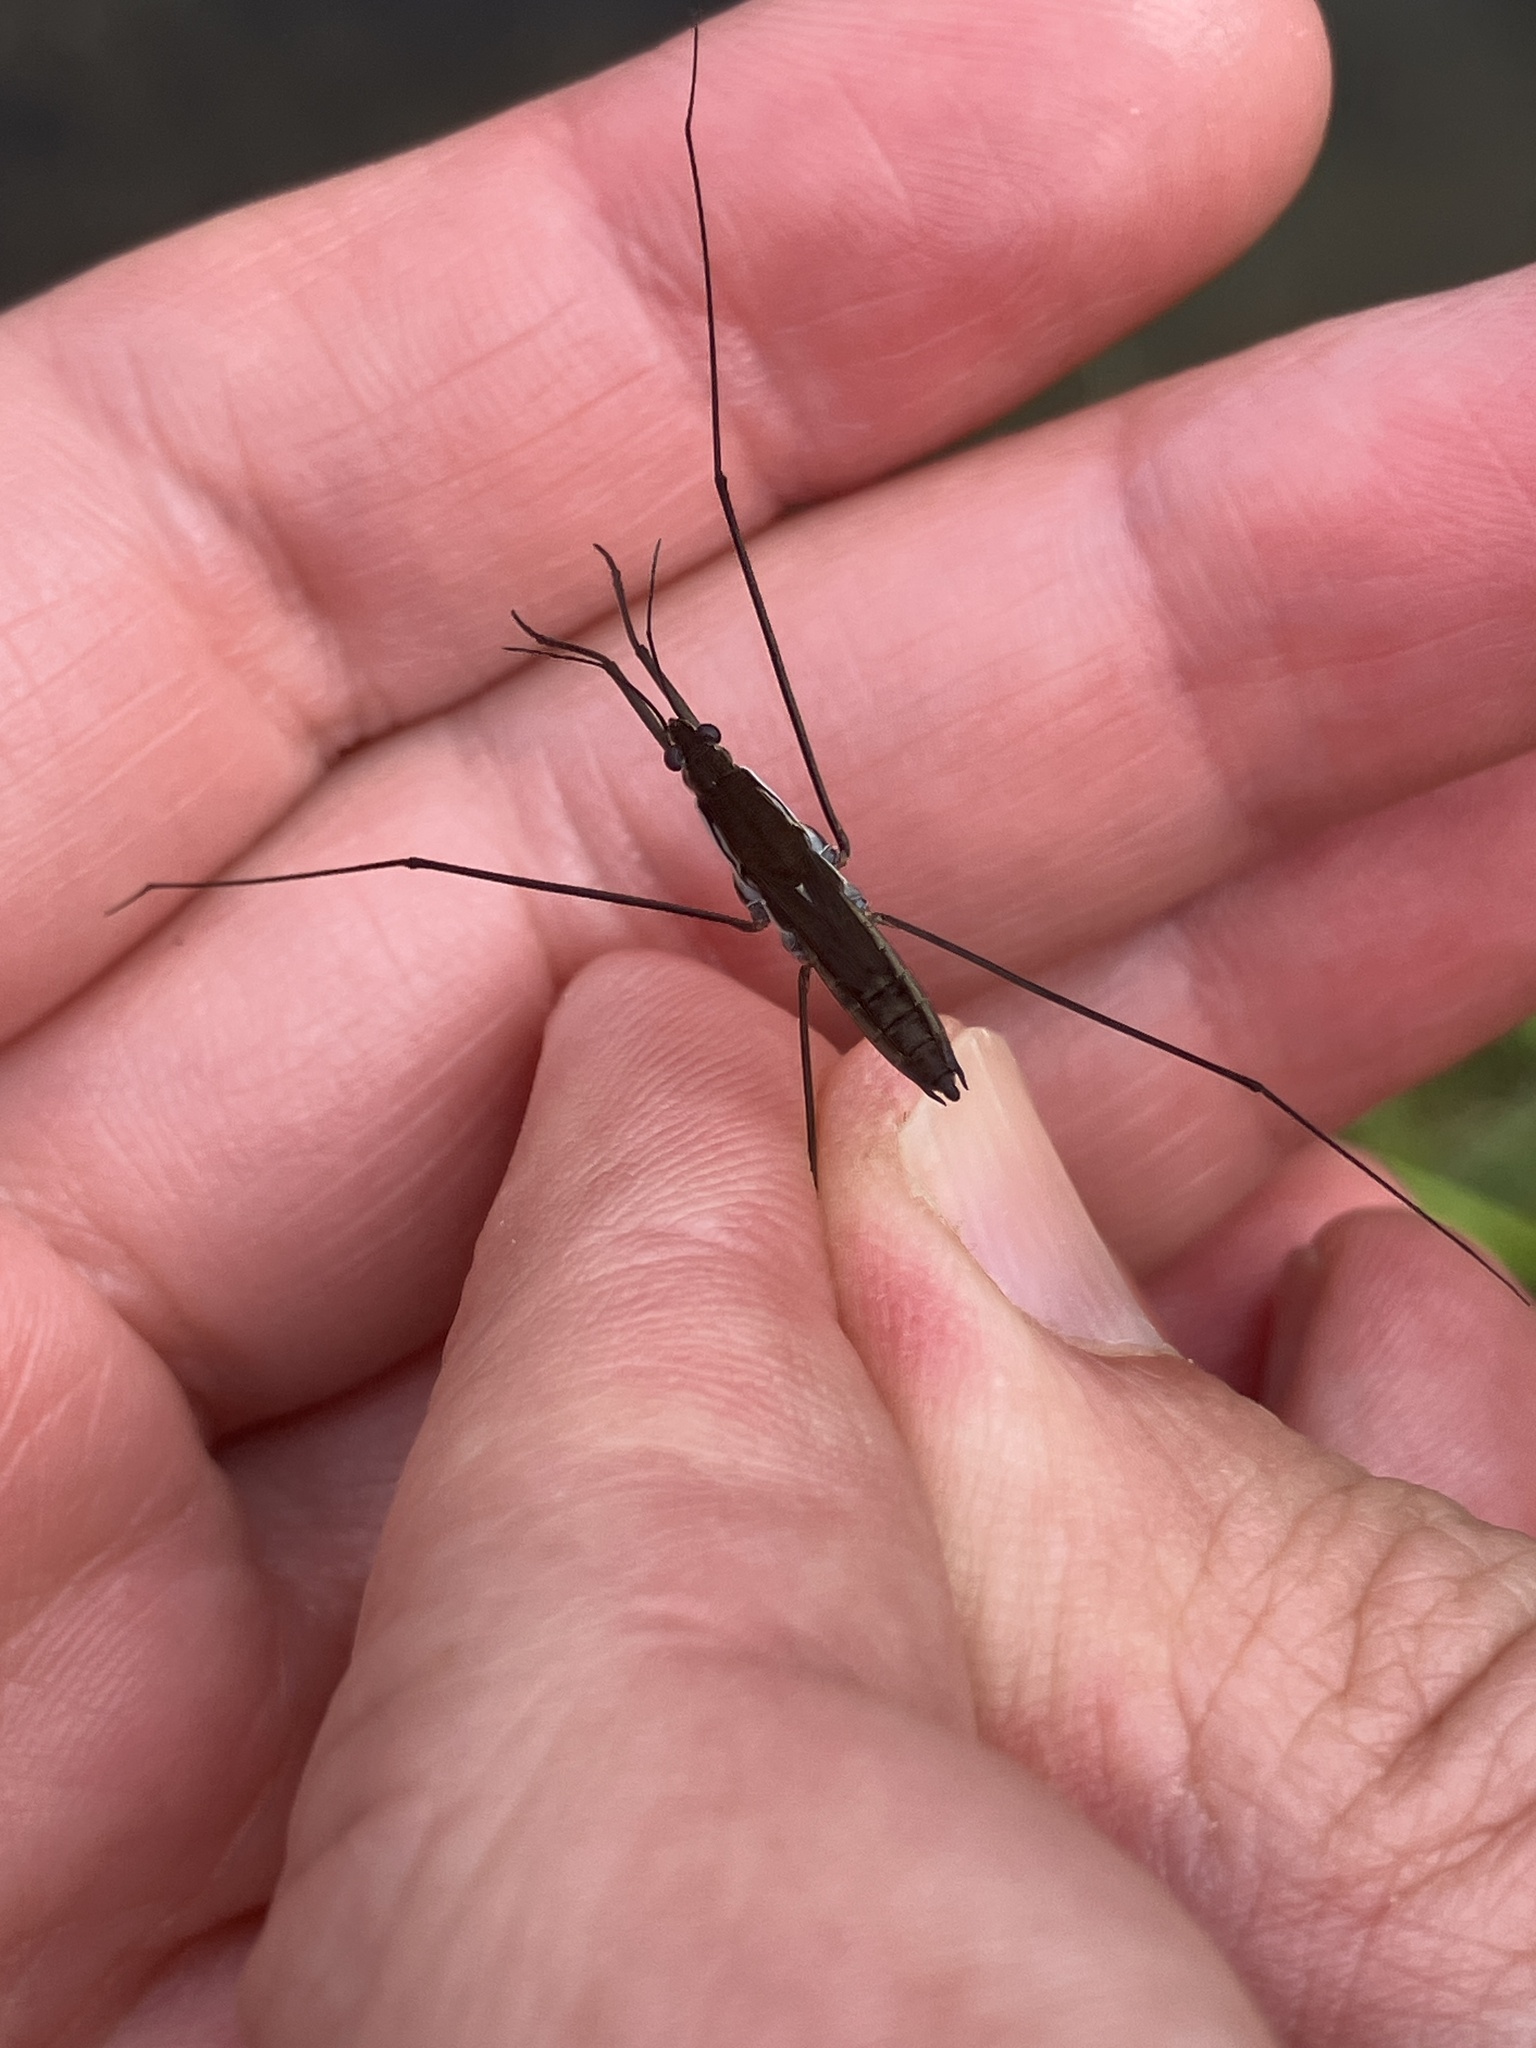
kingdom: Animalia
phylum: Arthropoda
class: Insecta
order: Hemiptera
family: Gerridae
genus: Aquarius
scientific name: Aquarius paludum
